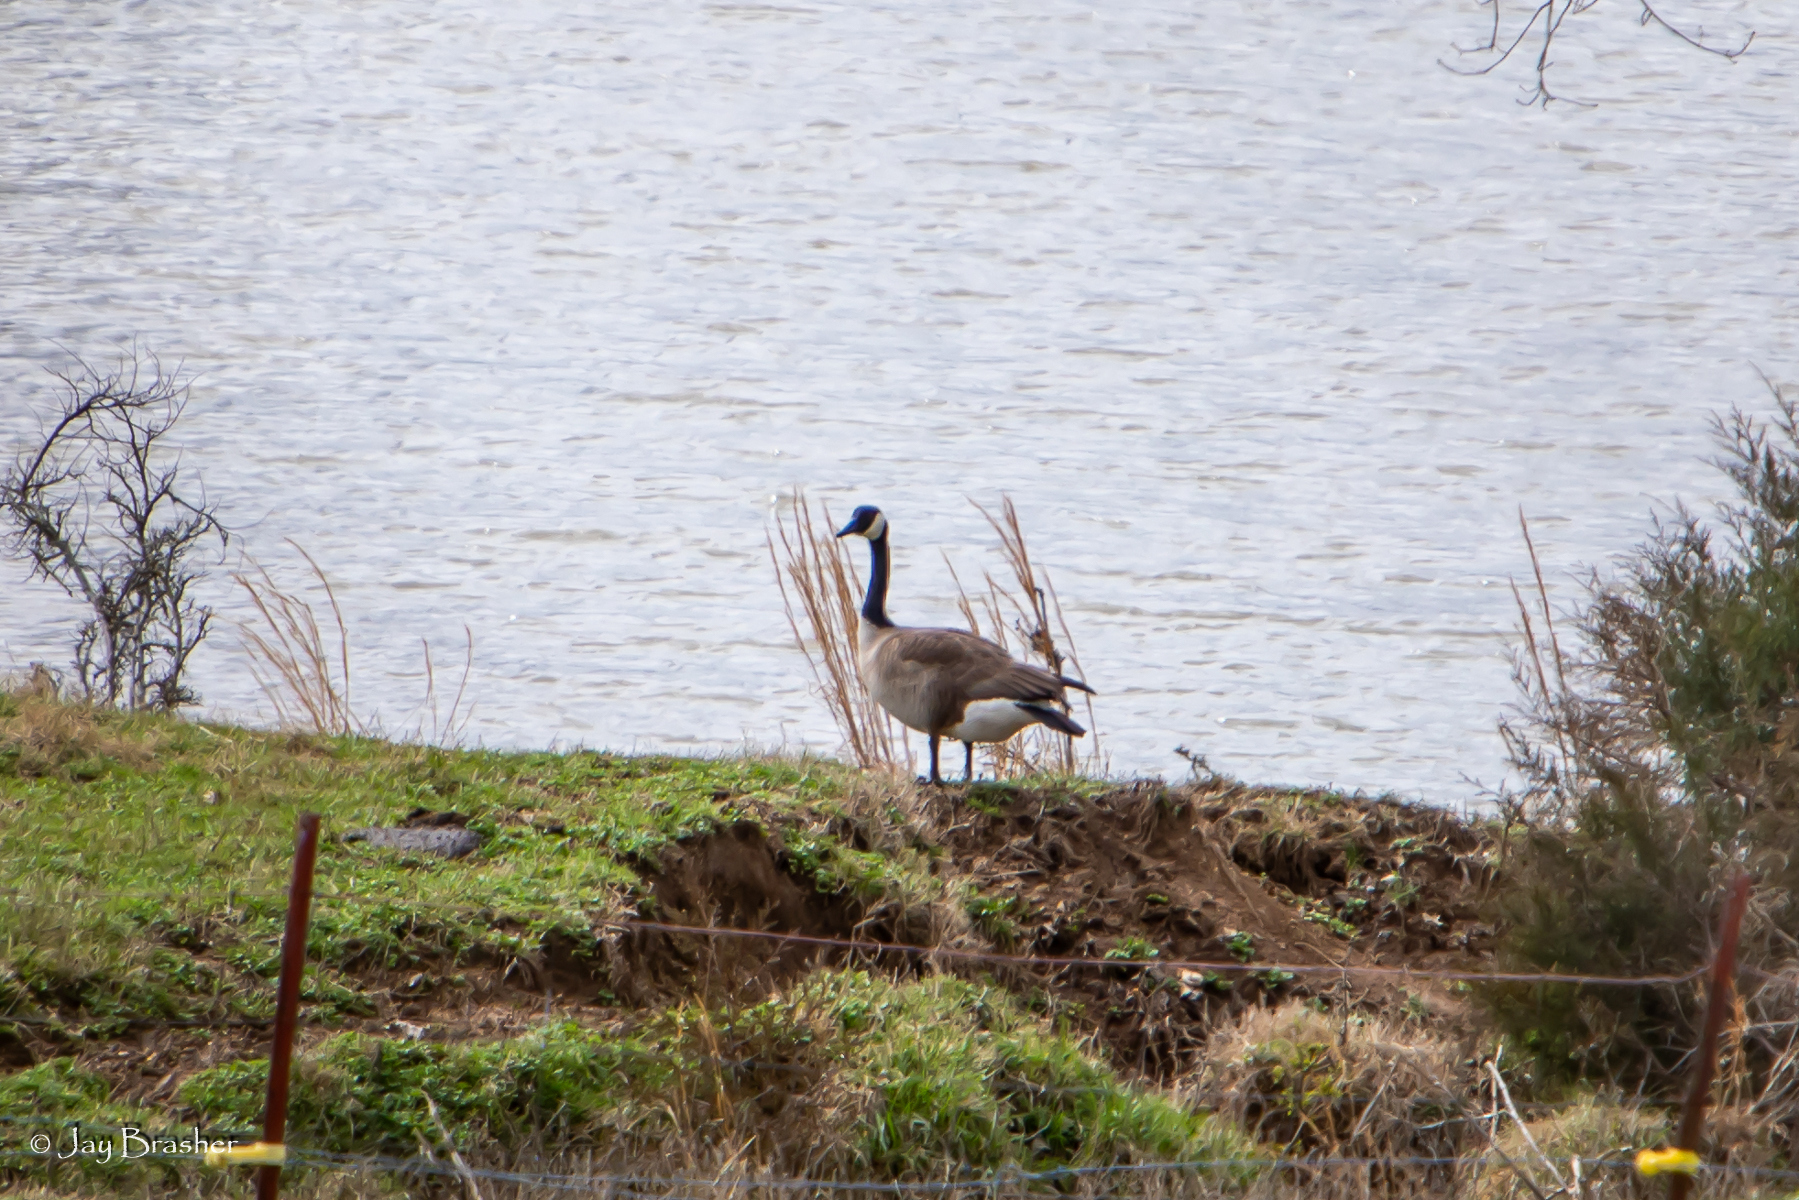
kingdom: Animalia
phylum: Chordata
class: Aves
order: Anseriformes
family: Anatidae
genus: Branta
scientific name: Branta canadensis
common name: Canada goose
